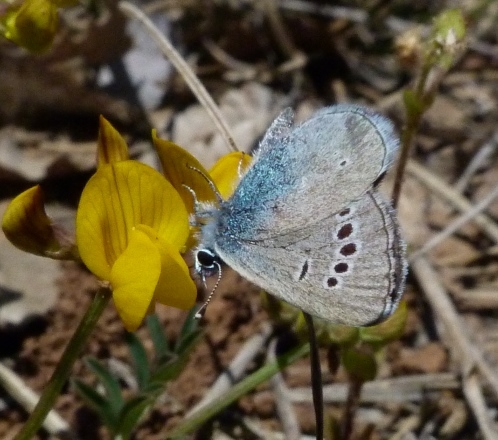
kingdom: Animalia
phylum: Arthropoda
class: Insecta
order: Lepidoptera
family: Lycaenidae
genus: Glaucopsyche
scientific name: Glaucopsyche alexis
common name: Green-underside blue
